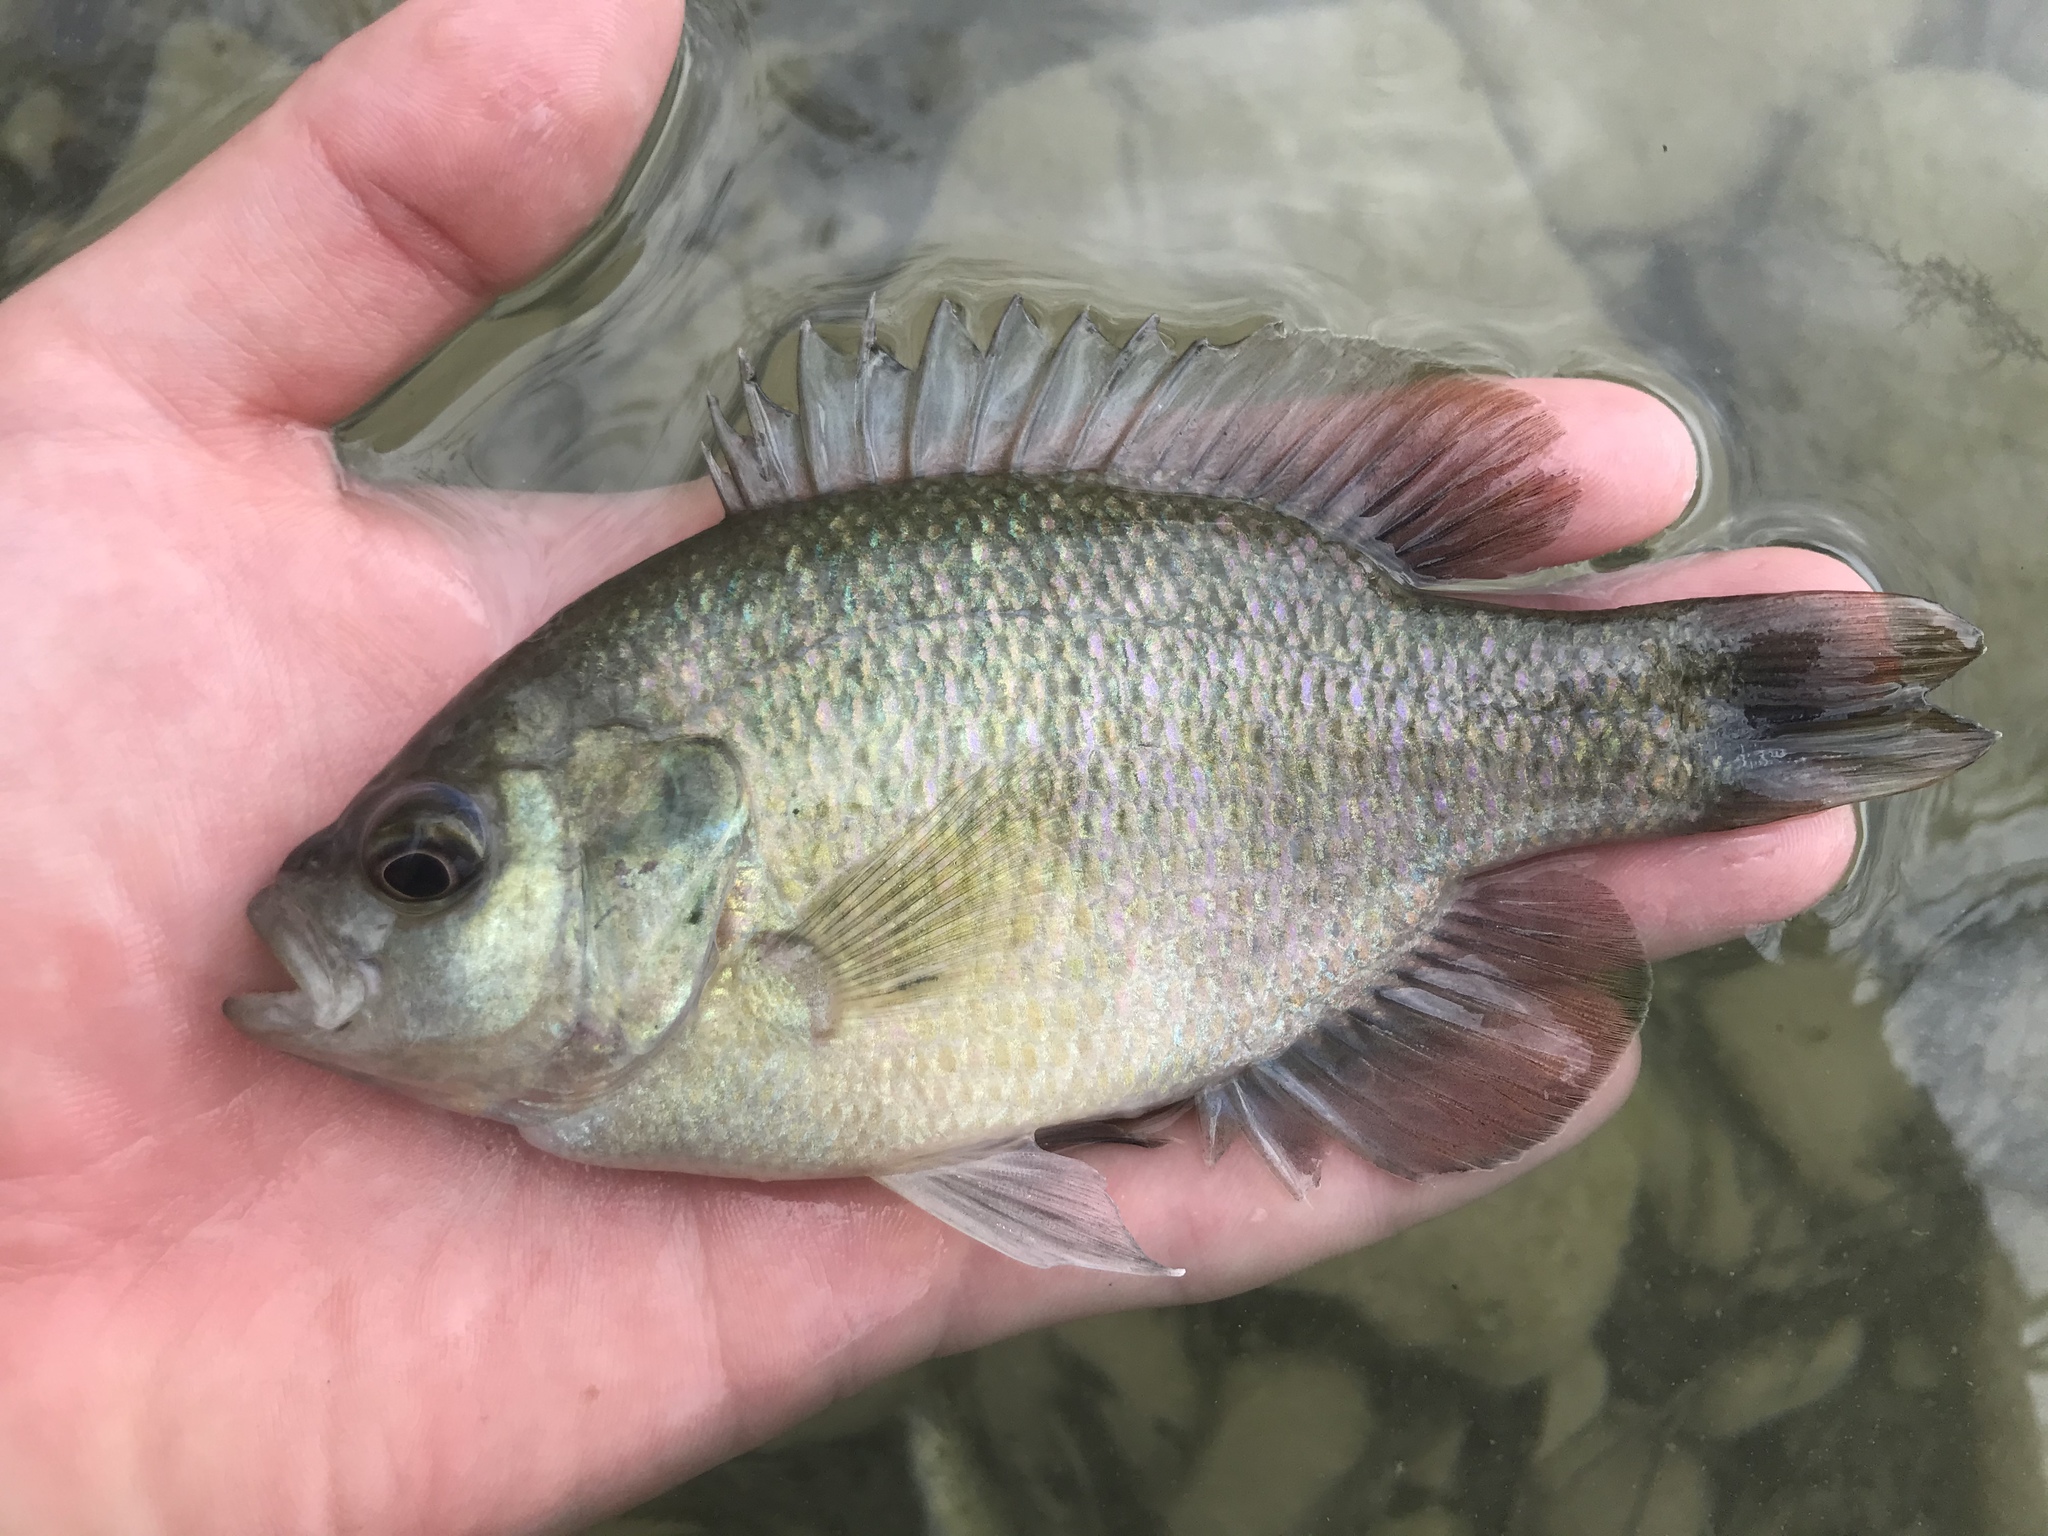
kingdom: Animalia
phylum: Chordata
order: Perciformes
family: Centrarchidae
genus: Lepomis
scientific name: Lepomis miniatus
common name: Redspotted sunfish
